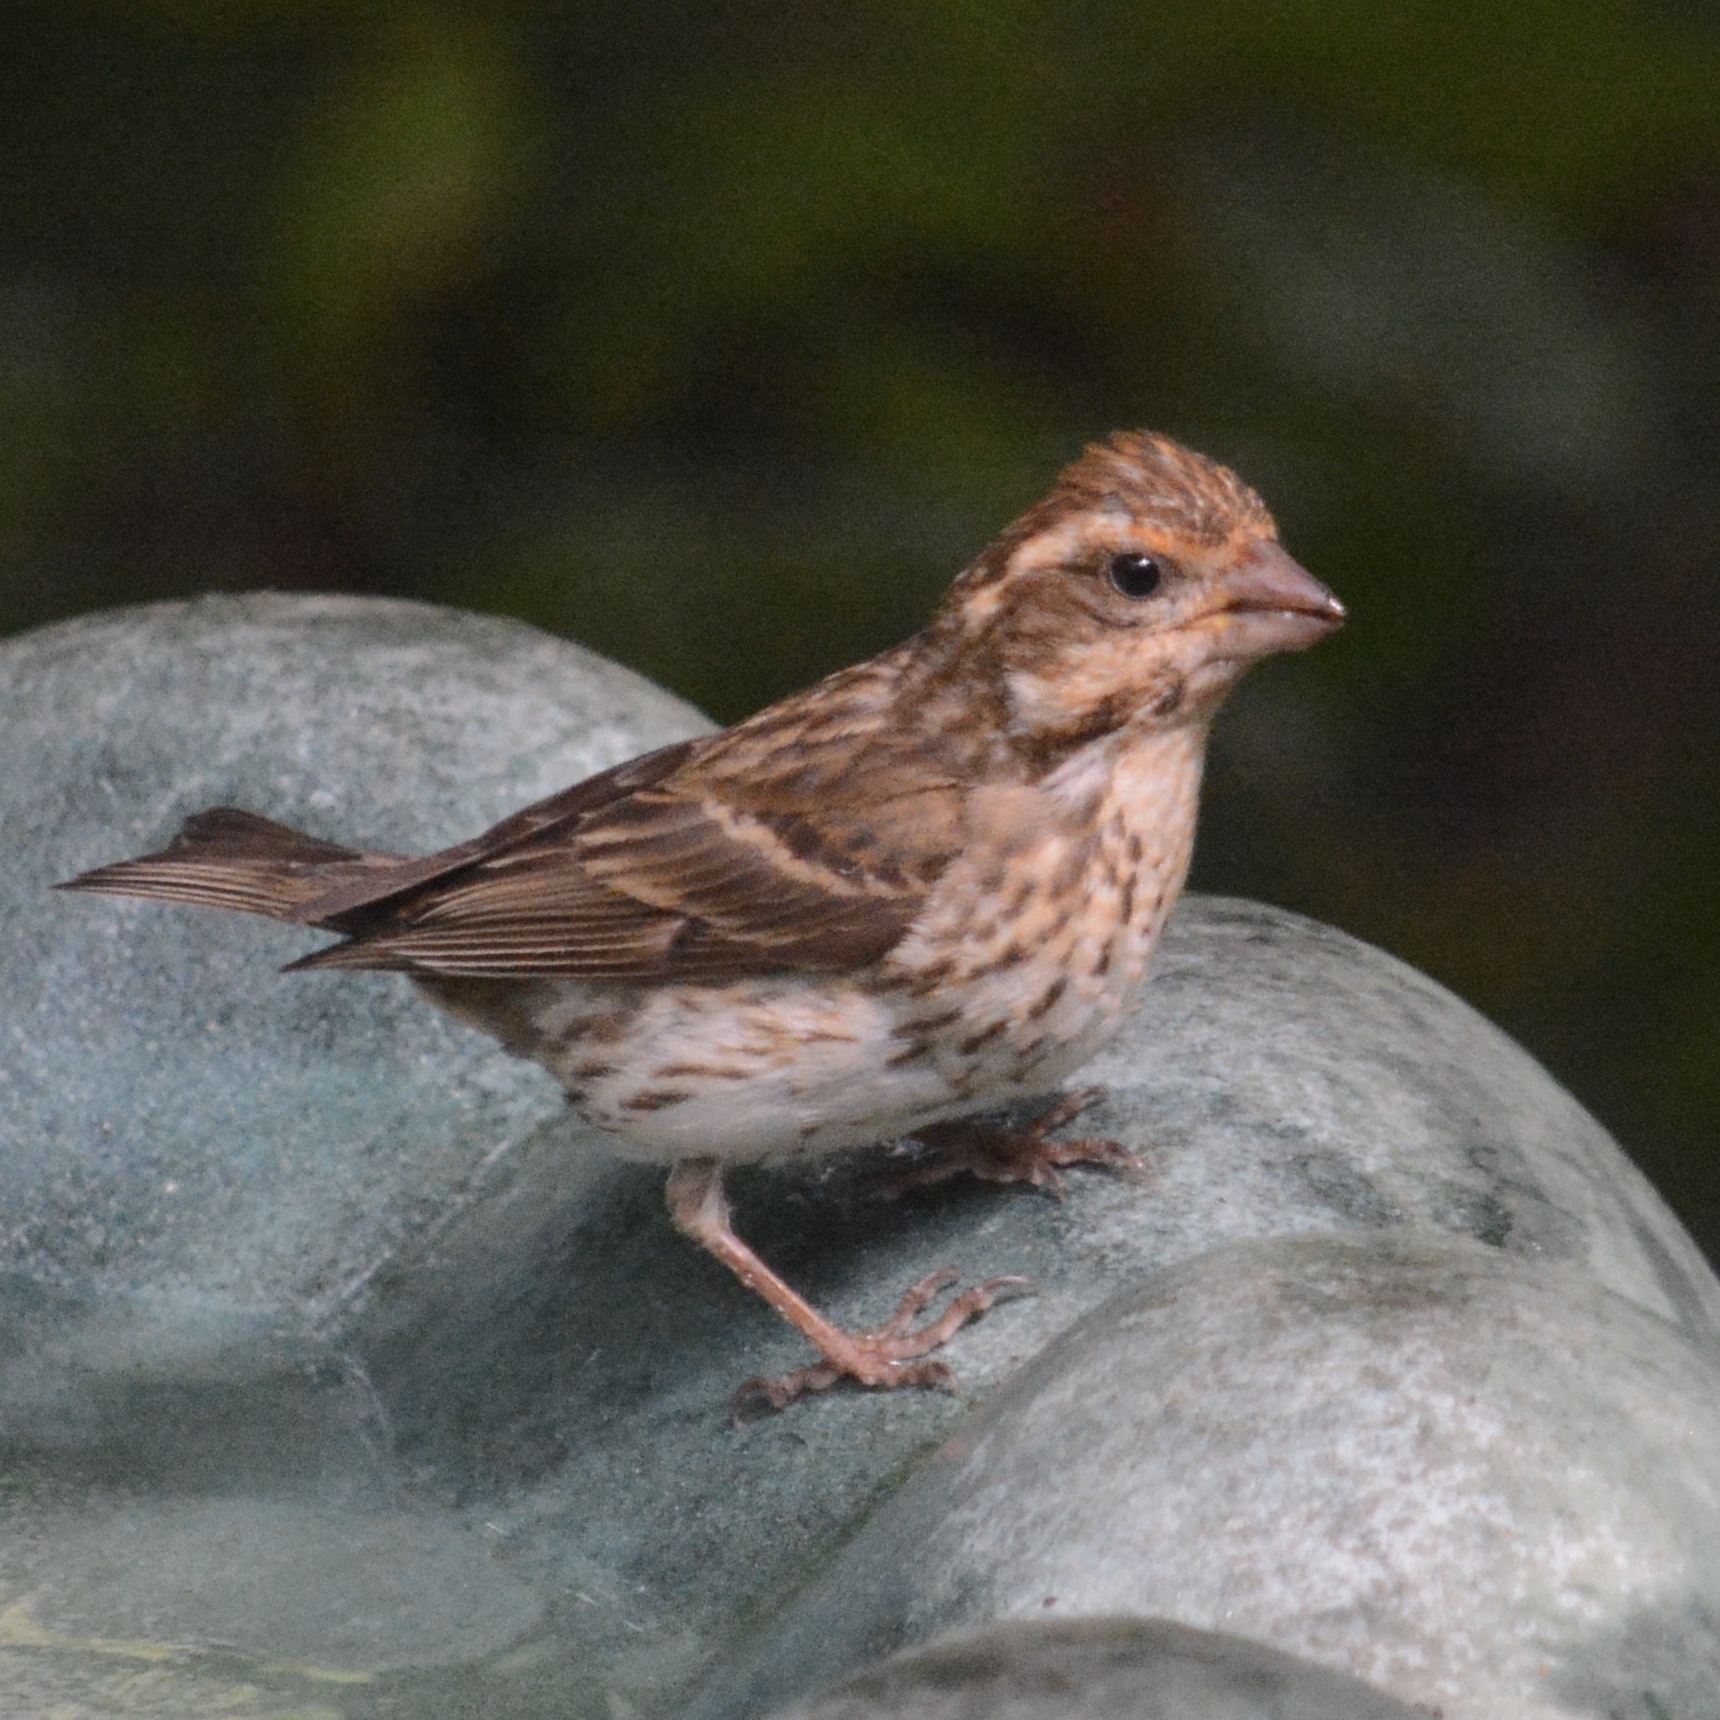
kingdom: Animalia
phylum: Chordata
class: Aves
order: Passeriformes
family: Fringillidae
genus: Haemorhous
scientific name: Haemorhous purpureus
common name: Purple finch
